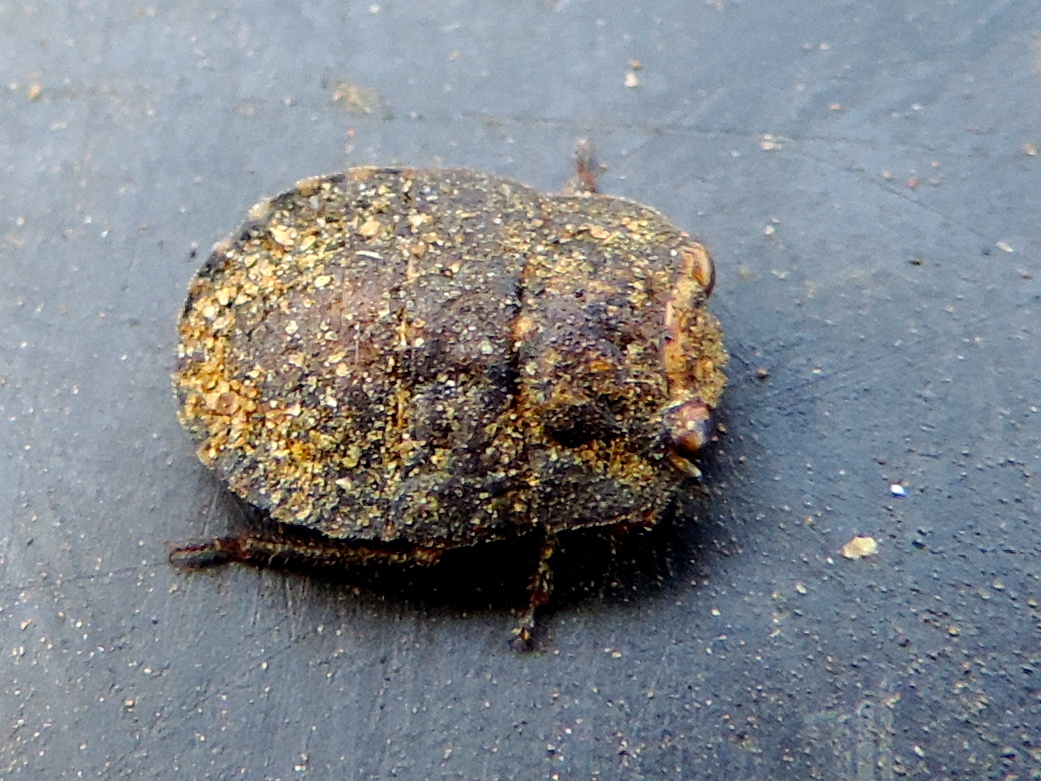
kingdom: Animalia
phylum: Arthropoda
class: Insecta
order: Hemiptera
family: Gelastocoridae
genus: Nerthra
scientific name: Nerthra
